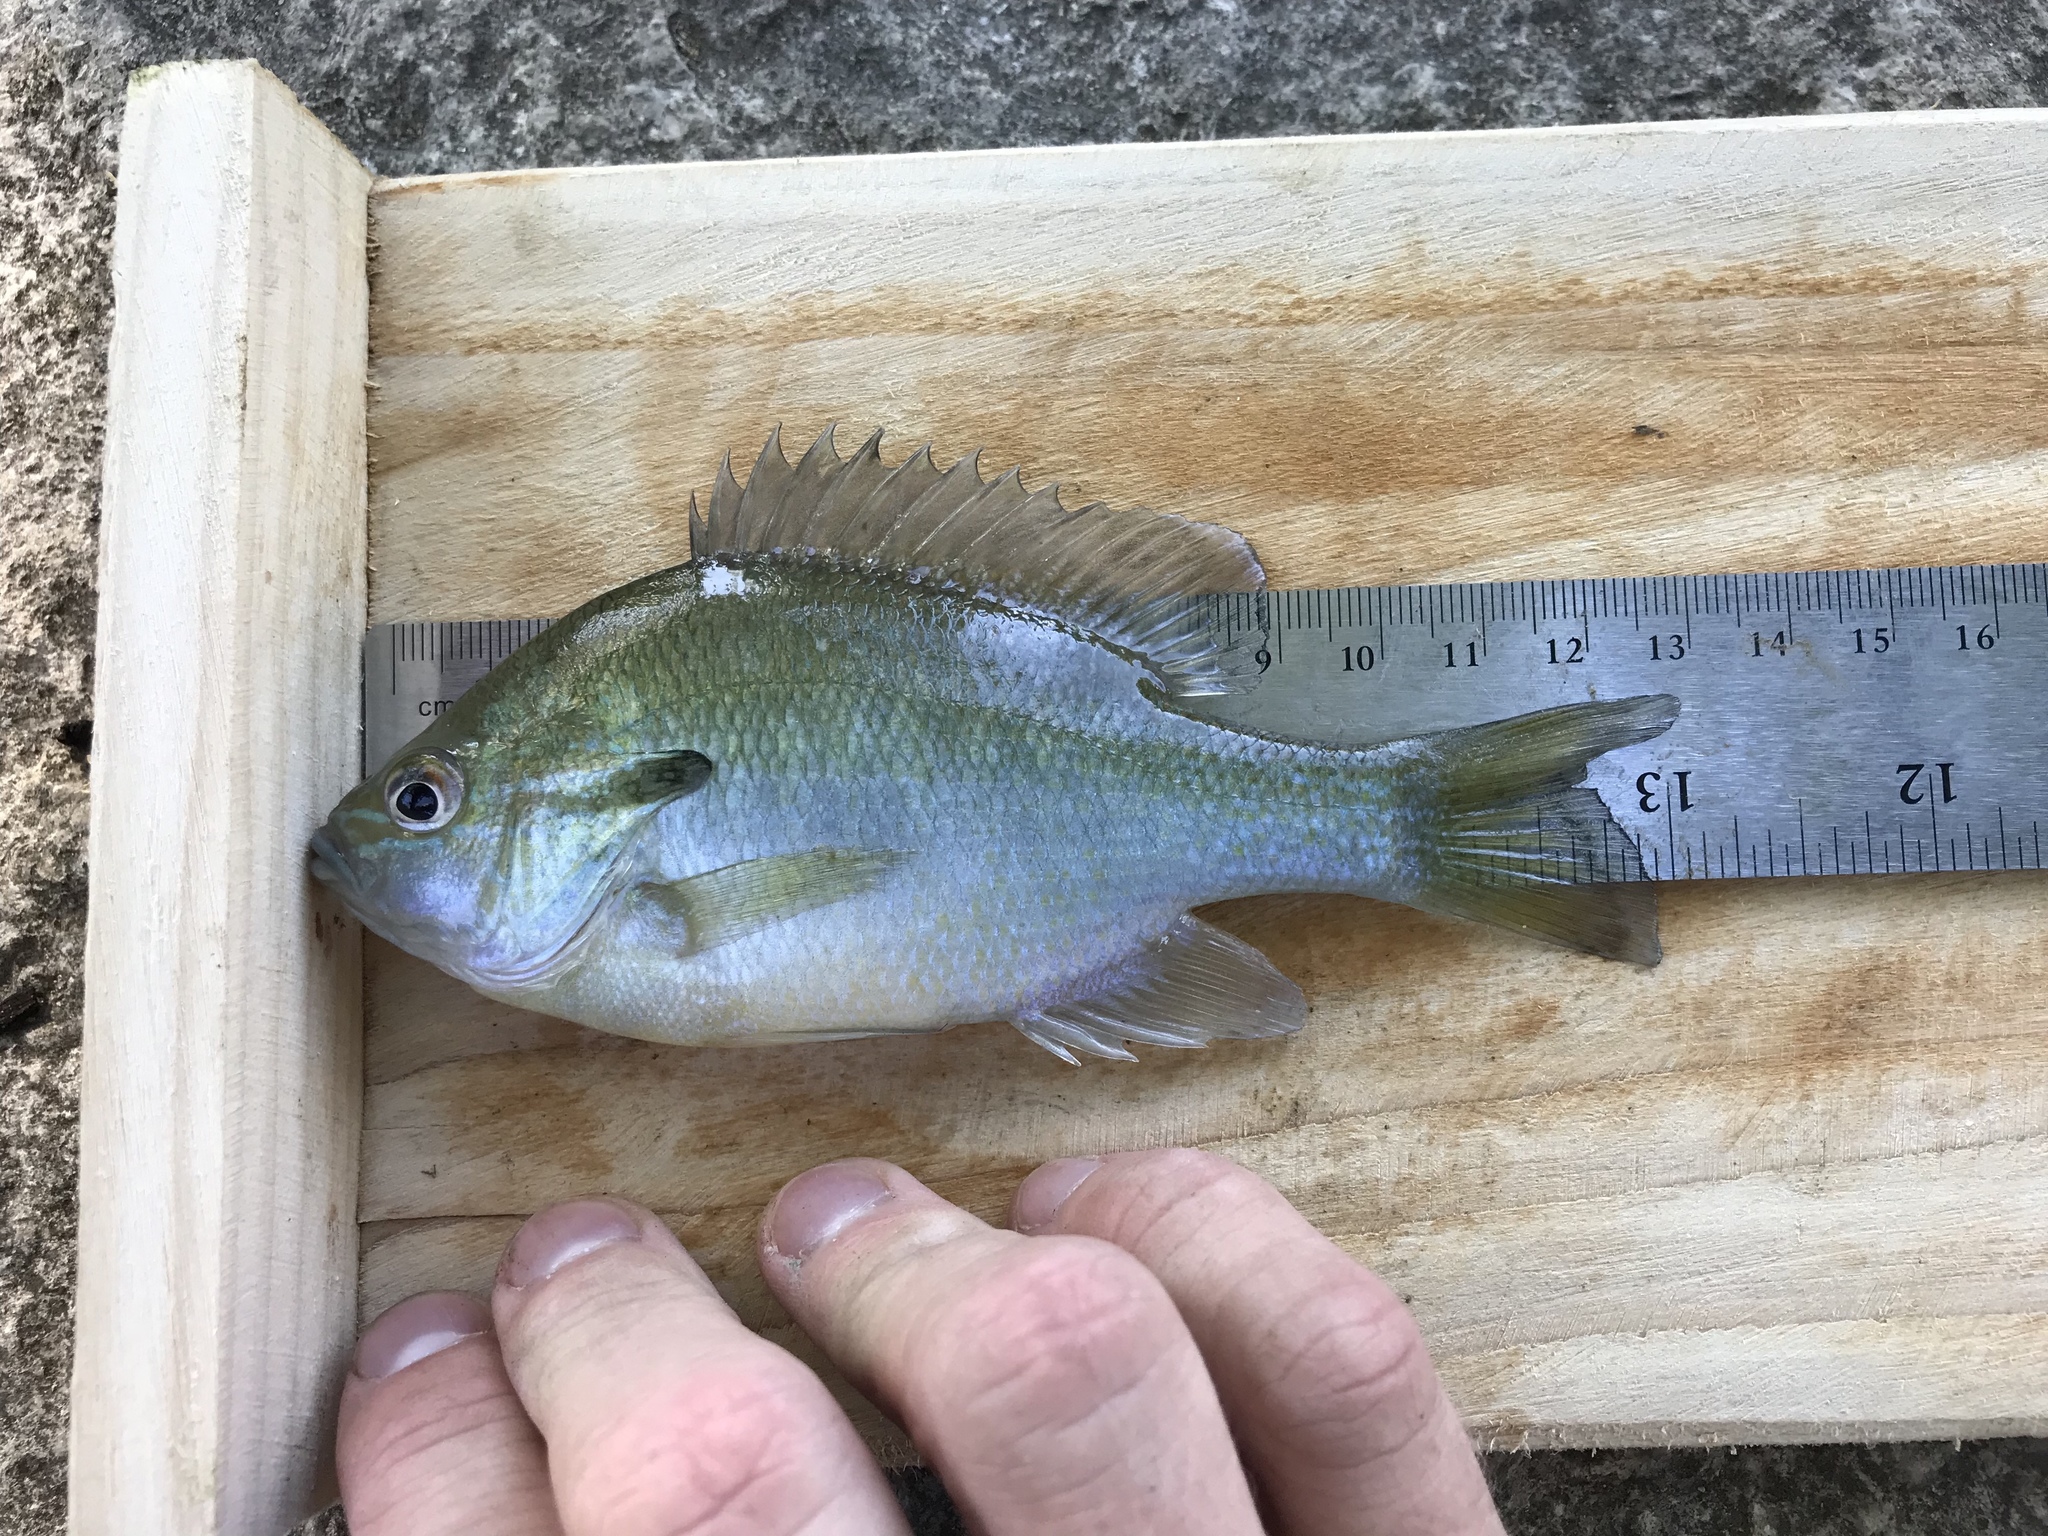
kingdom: Animalia
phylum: Chordata
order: Perciformes
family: Centrarchidae
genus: Lepomis
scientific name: Lepomis auritus
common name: Redbreast sunfish
